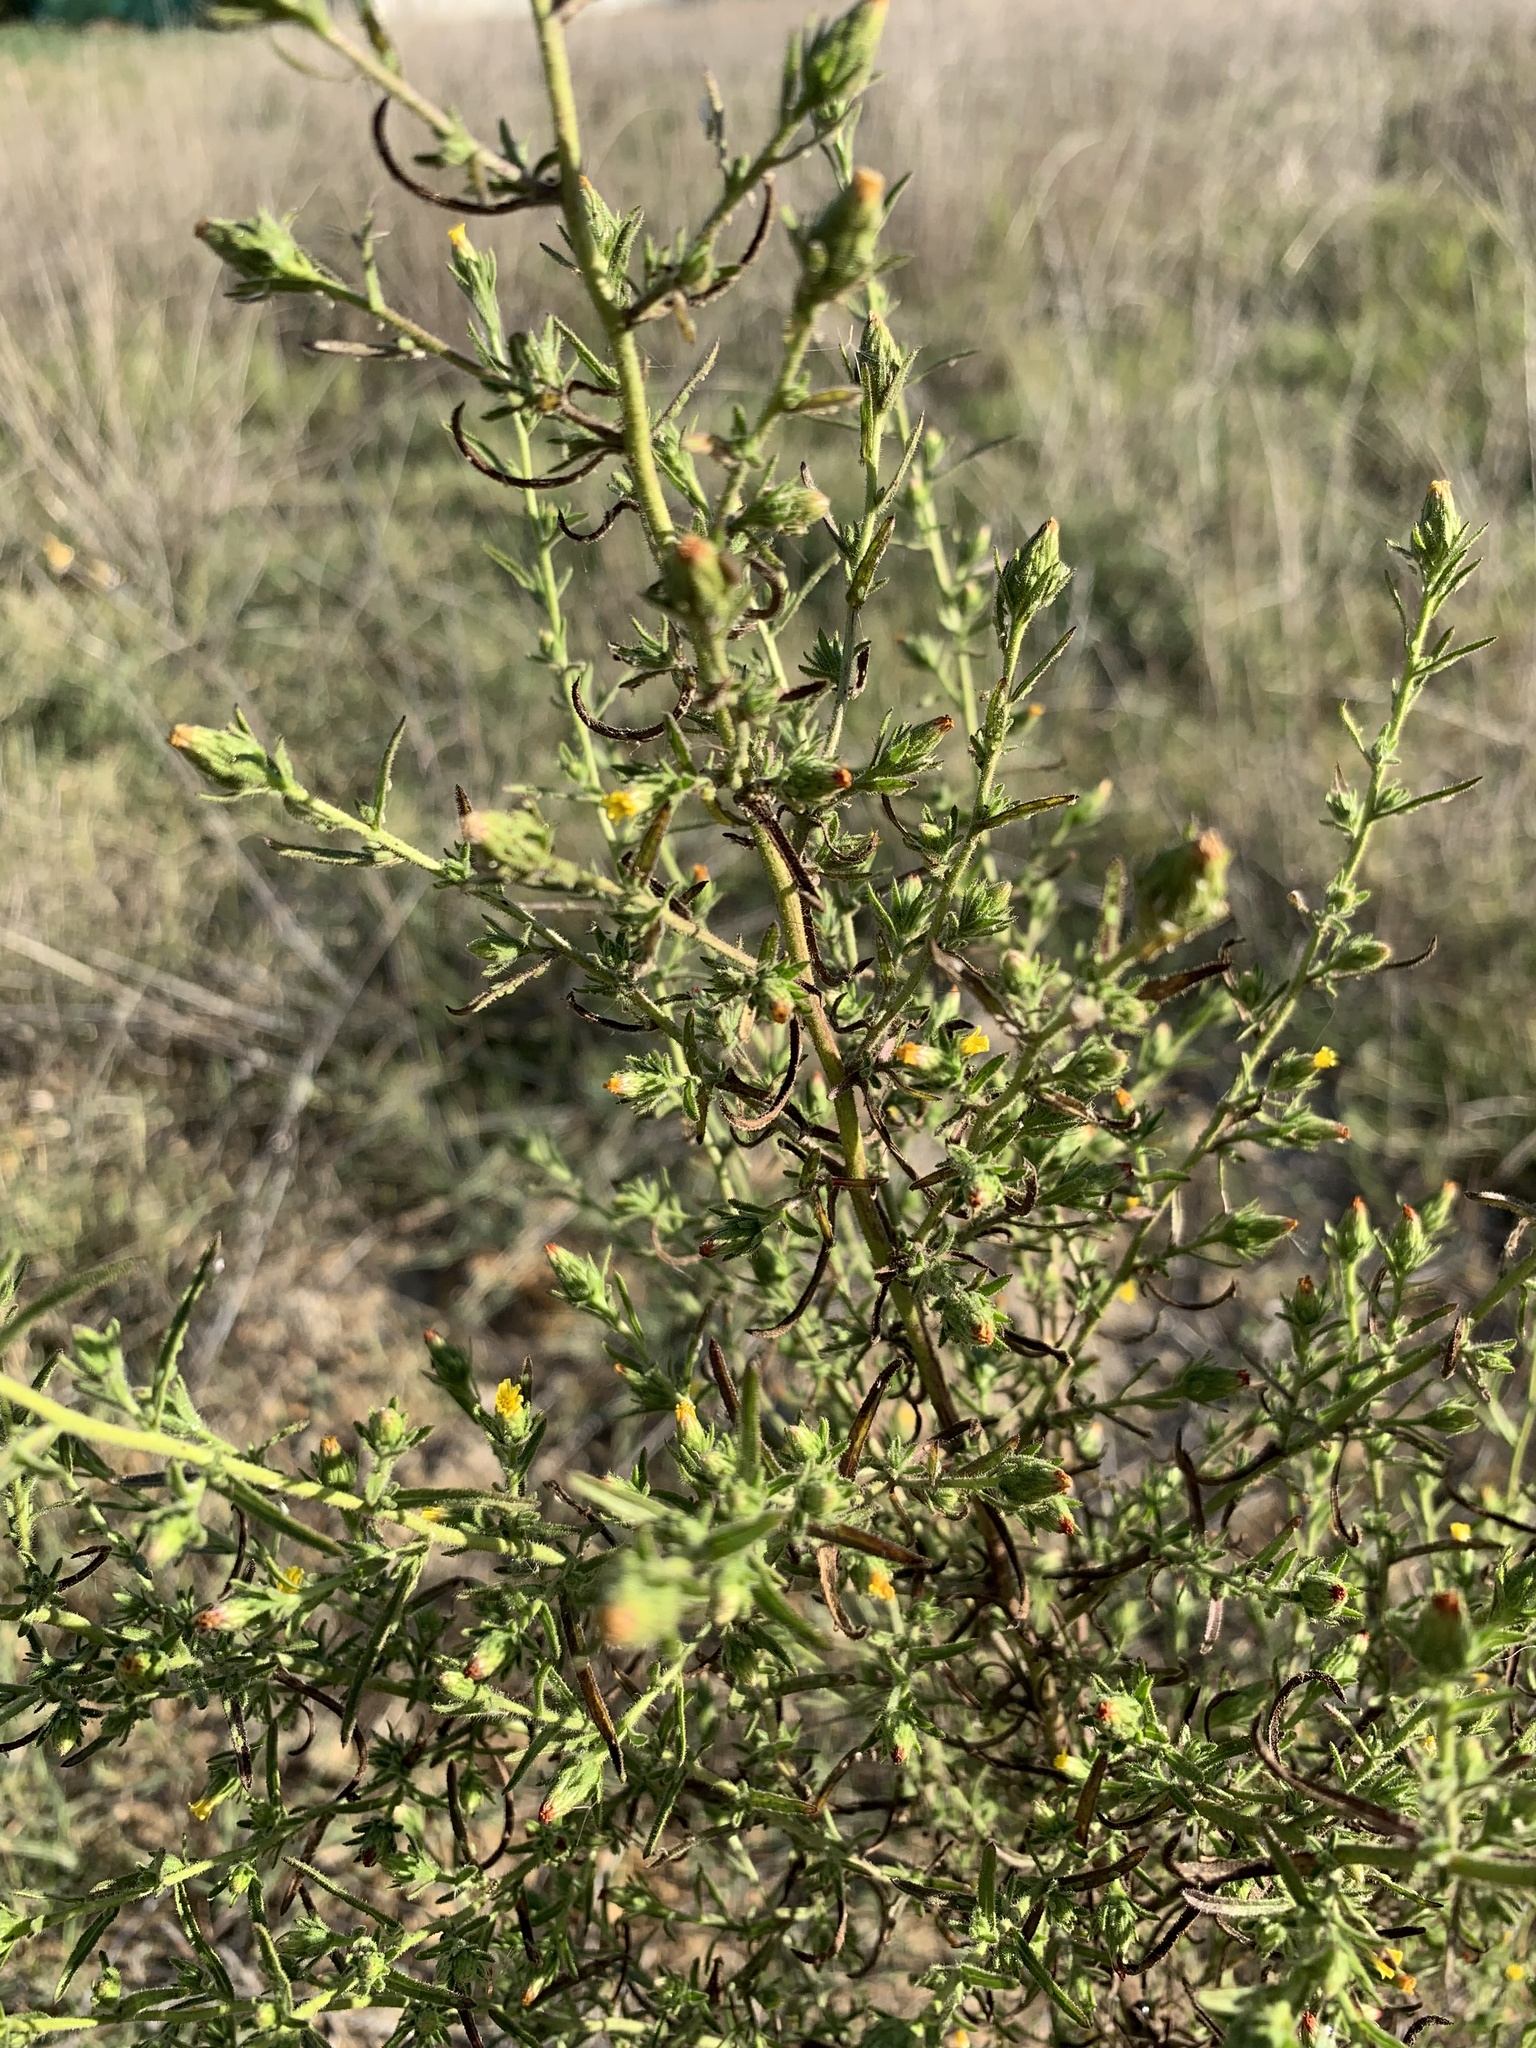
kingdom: Plantae
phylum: Tracheophyta
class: Magnoliopsida
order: Asterales
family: Asteraceae
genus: Dittrichia
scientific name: Dittrichia graveolens
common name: Stinking fleabane
